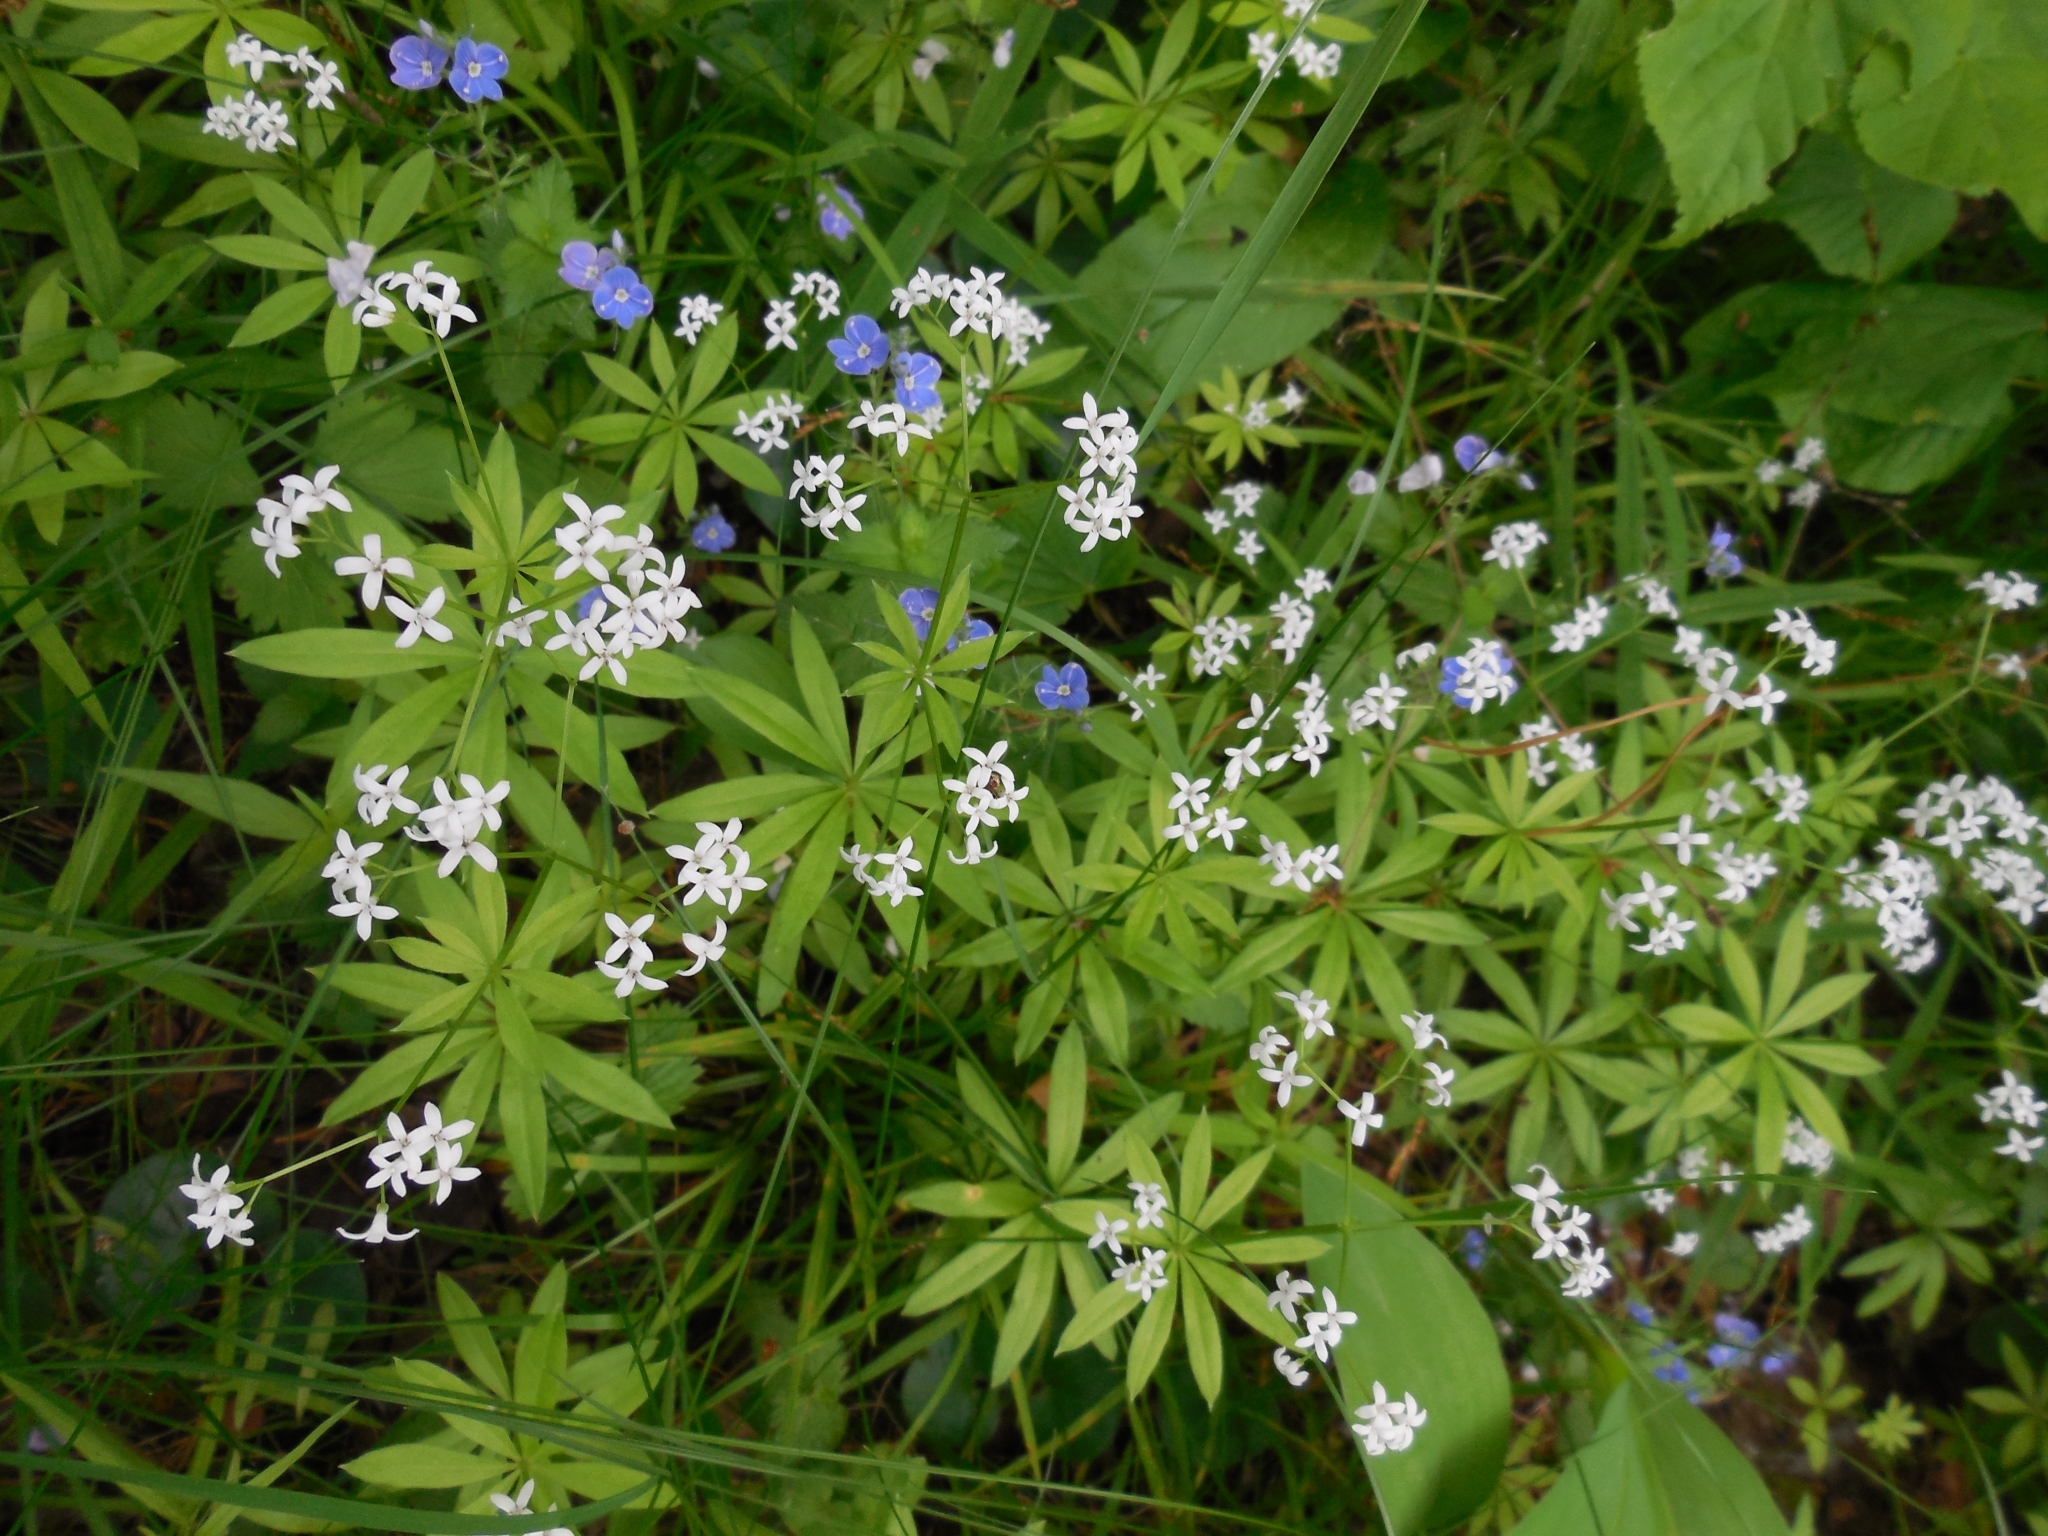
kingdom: Plantae
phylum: Tracheophyta
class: Magnoliopsida
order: Gentianales
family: Rubiaceae
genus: Galium
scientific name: Galium odoratum
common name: Sweet woodruff
